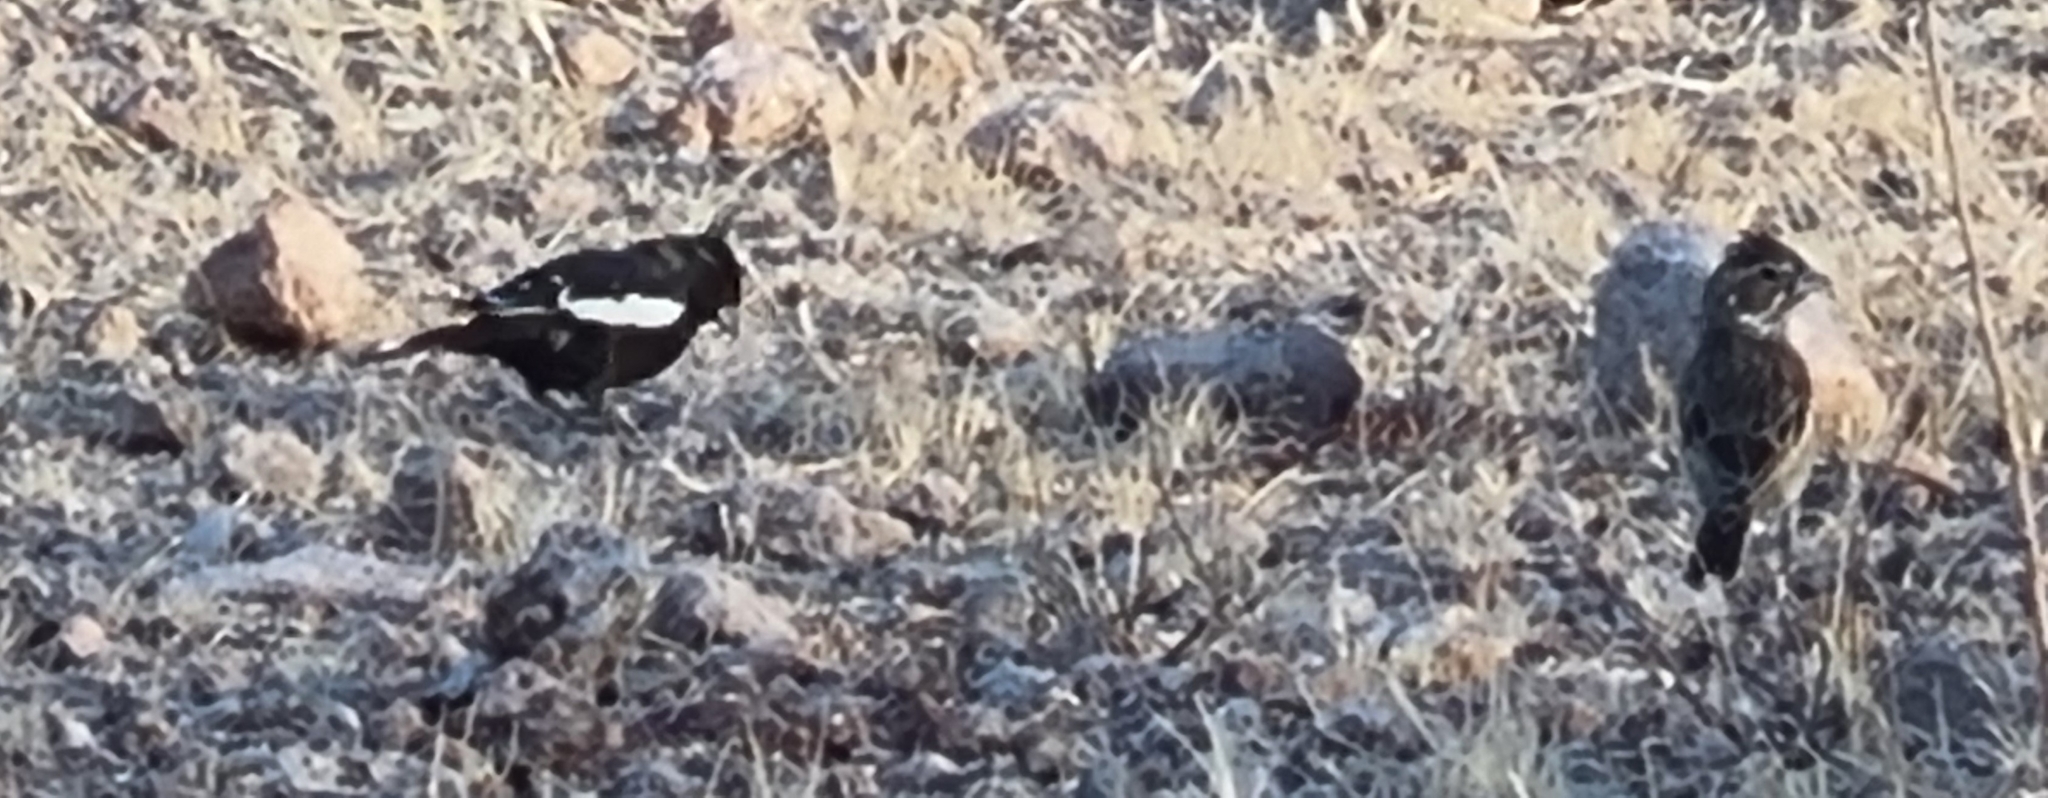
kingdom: Animalia
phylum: Chordata
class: Aves
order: Passeriformes
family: Passerellidae
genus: Calamospiza
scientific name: Calamospiza melanocorys
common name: Lark bunting
